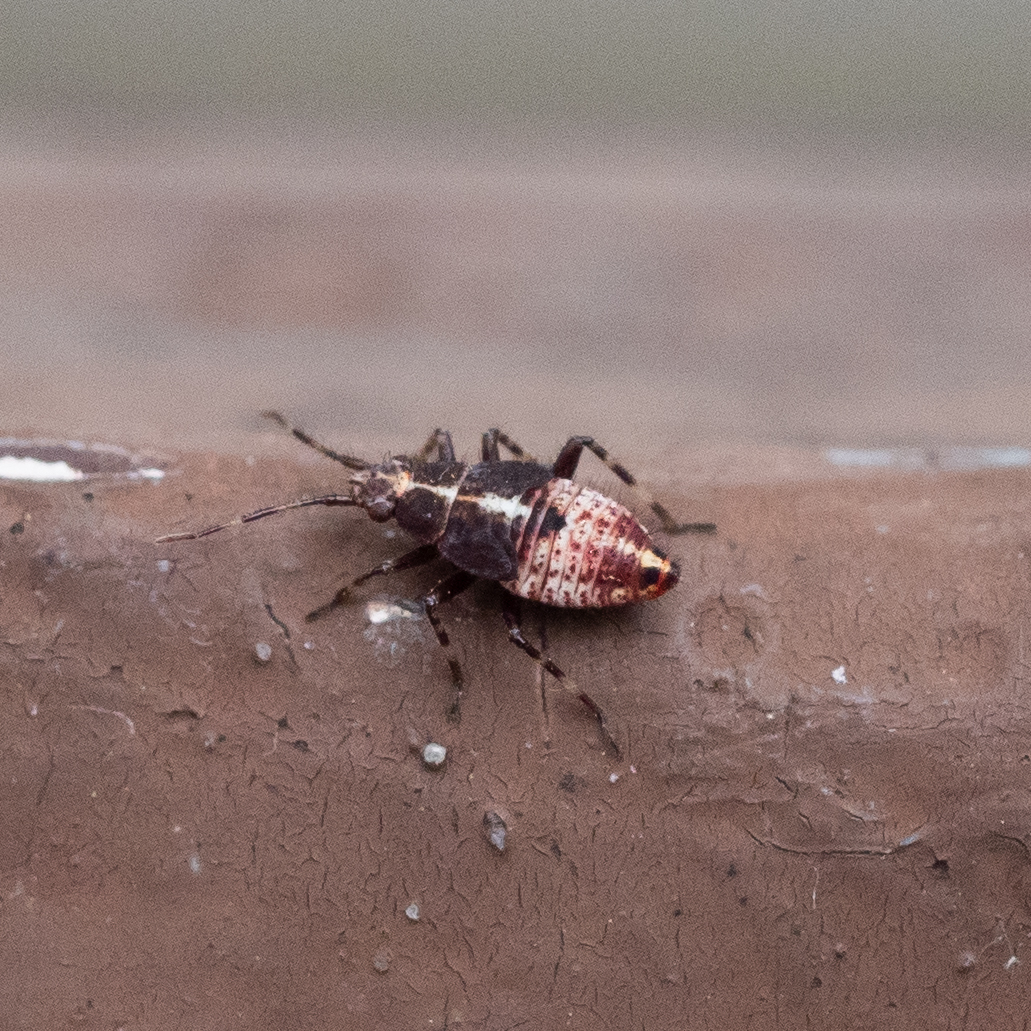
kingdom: Animalia
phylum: Arthropoda
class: Insecta
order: Hemiptera
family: Miridae
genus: Deraeocoris
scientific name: Deraeocoris flavilinea
